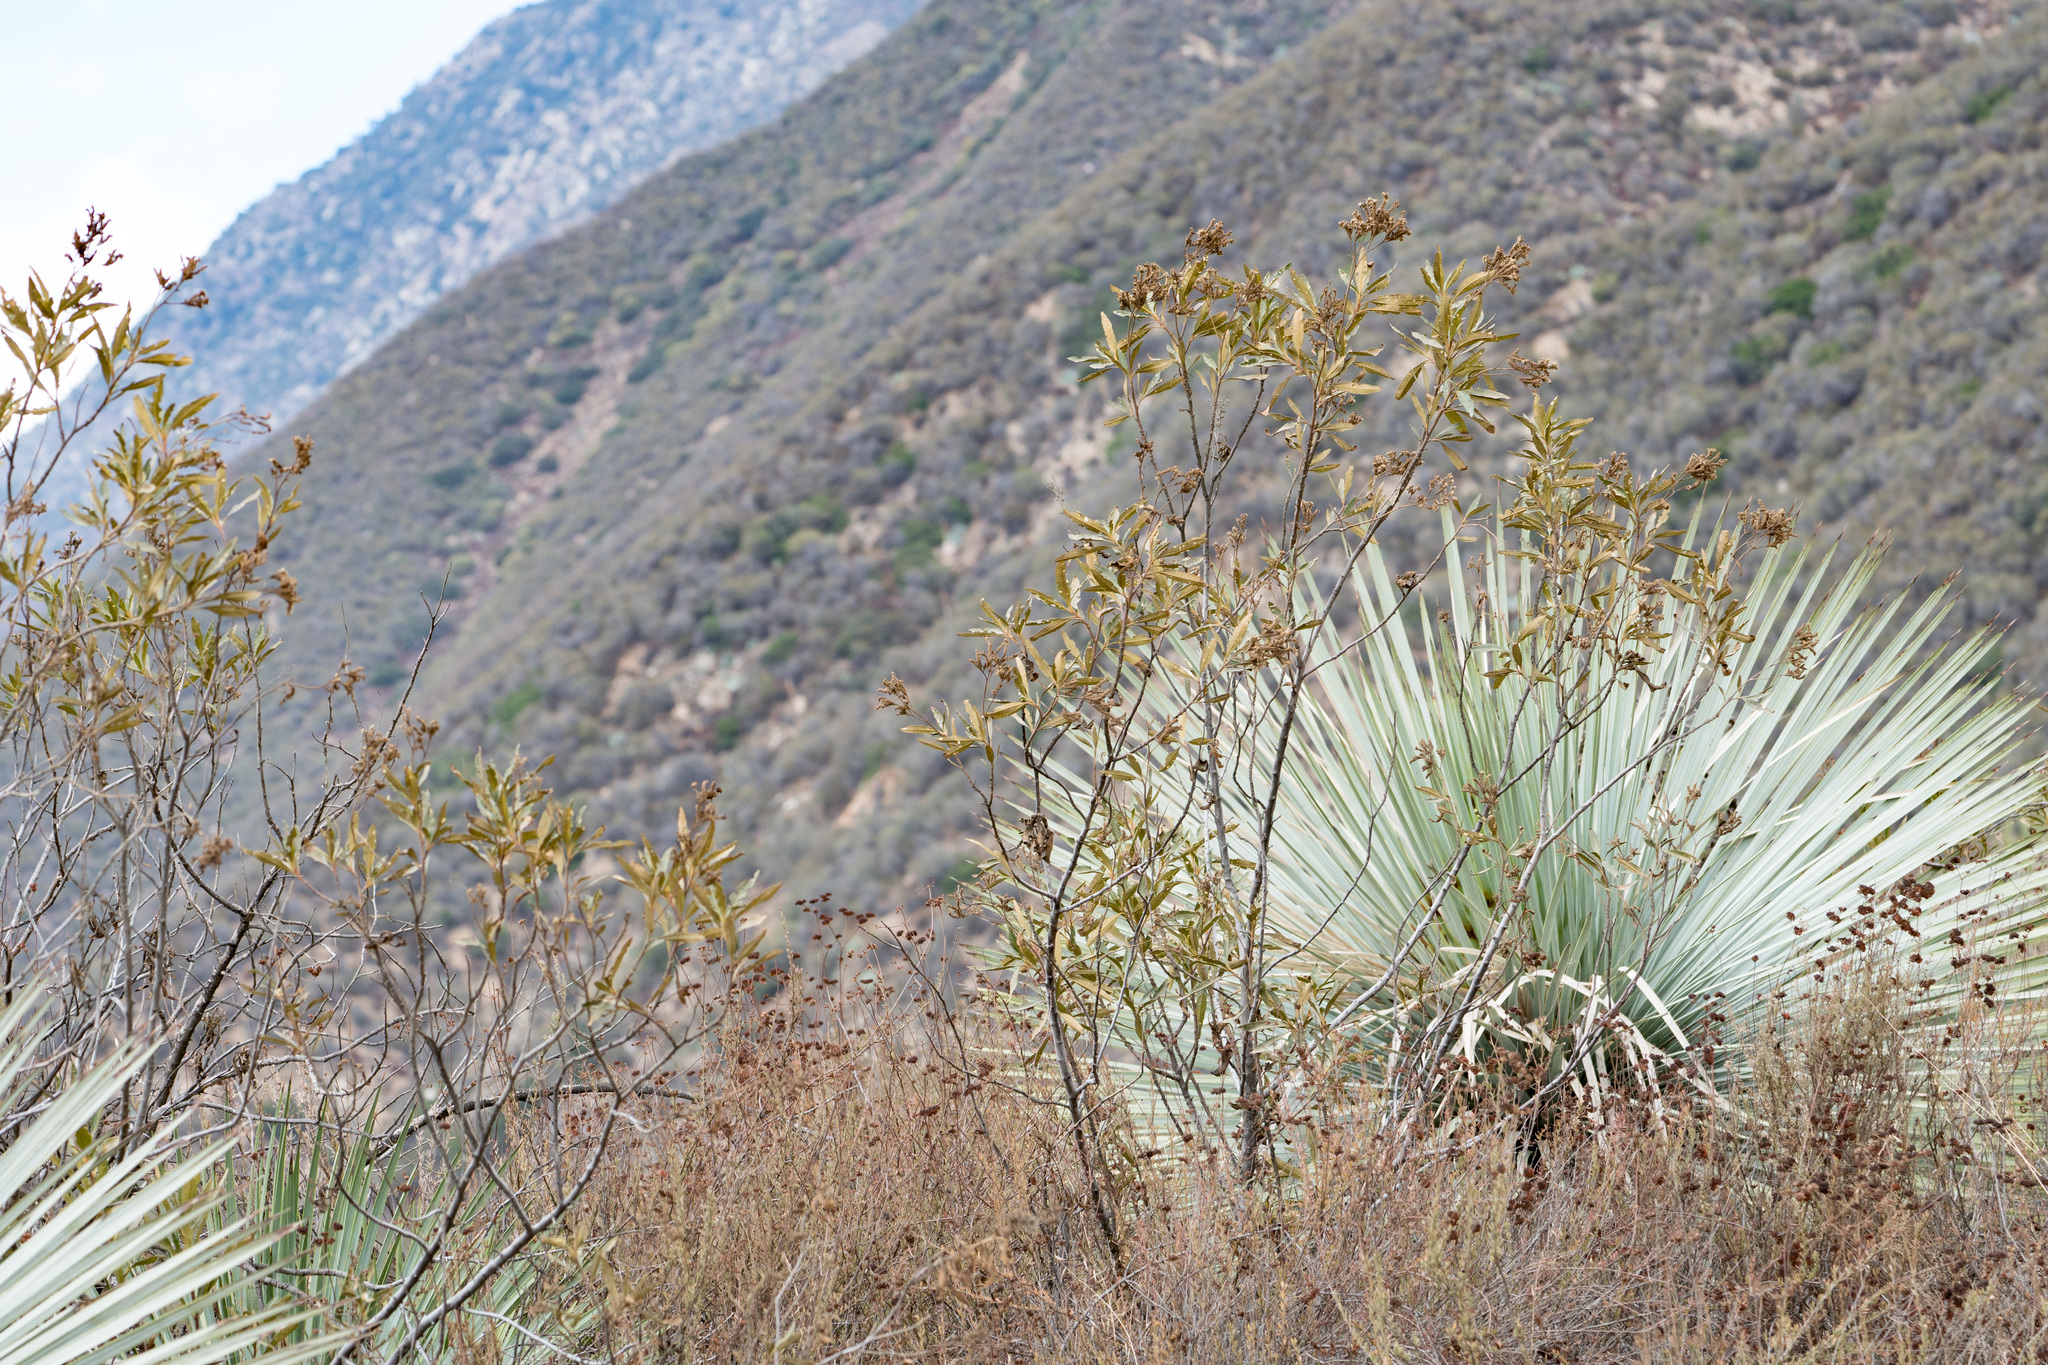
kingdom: Plantae
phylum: Tracheophyta
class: Magnoliopsida
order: Boraginales
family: Namaceae
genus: Eriodictyon
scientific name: Eriodictyon trichocalyx
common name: Hairy yerba-santa
